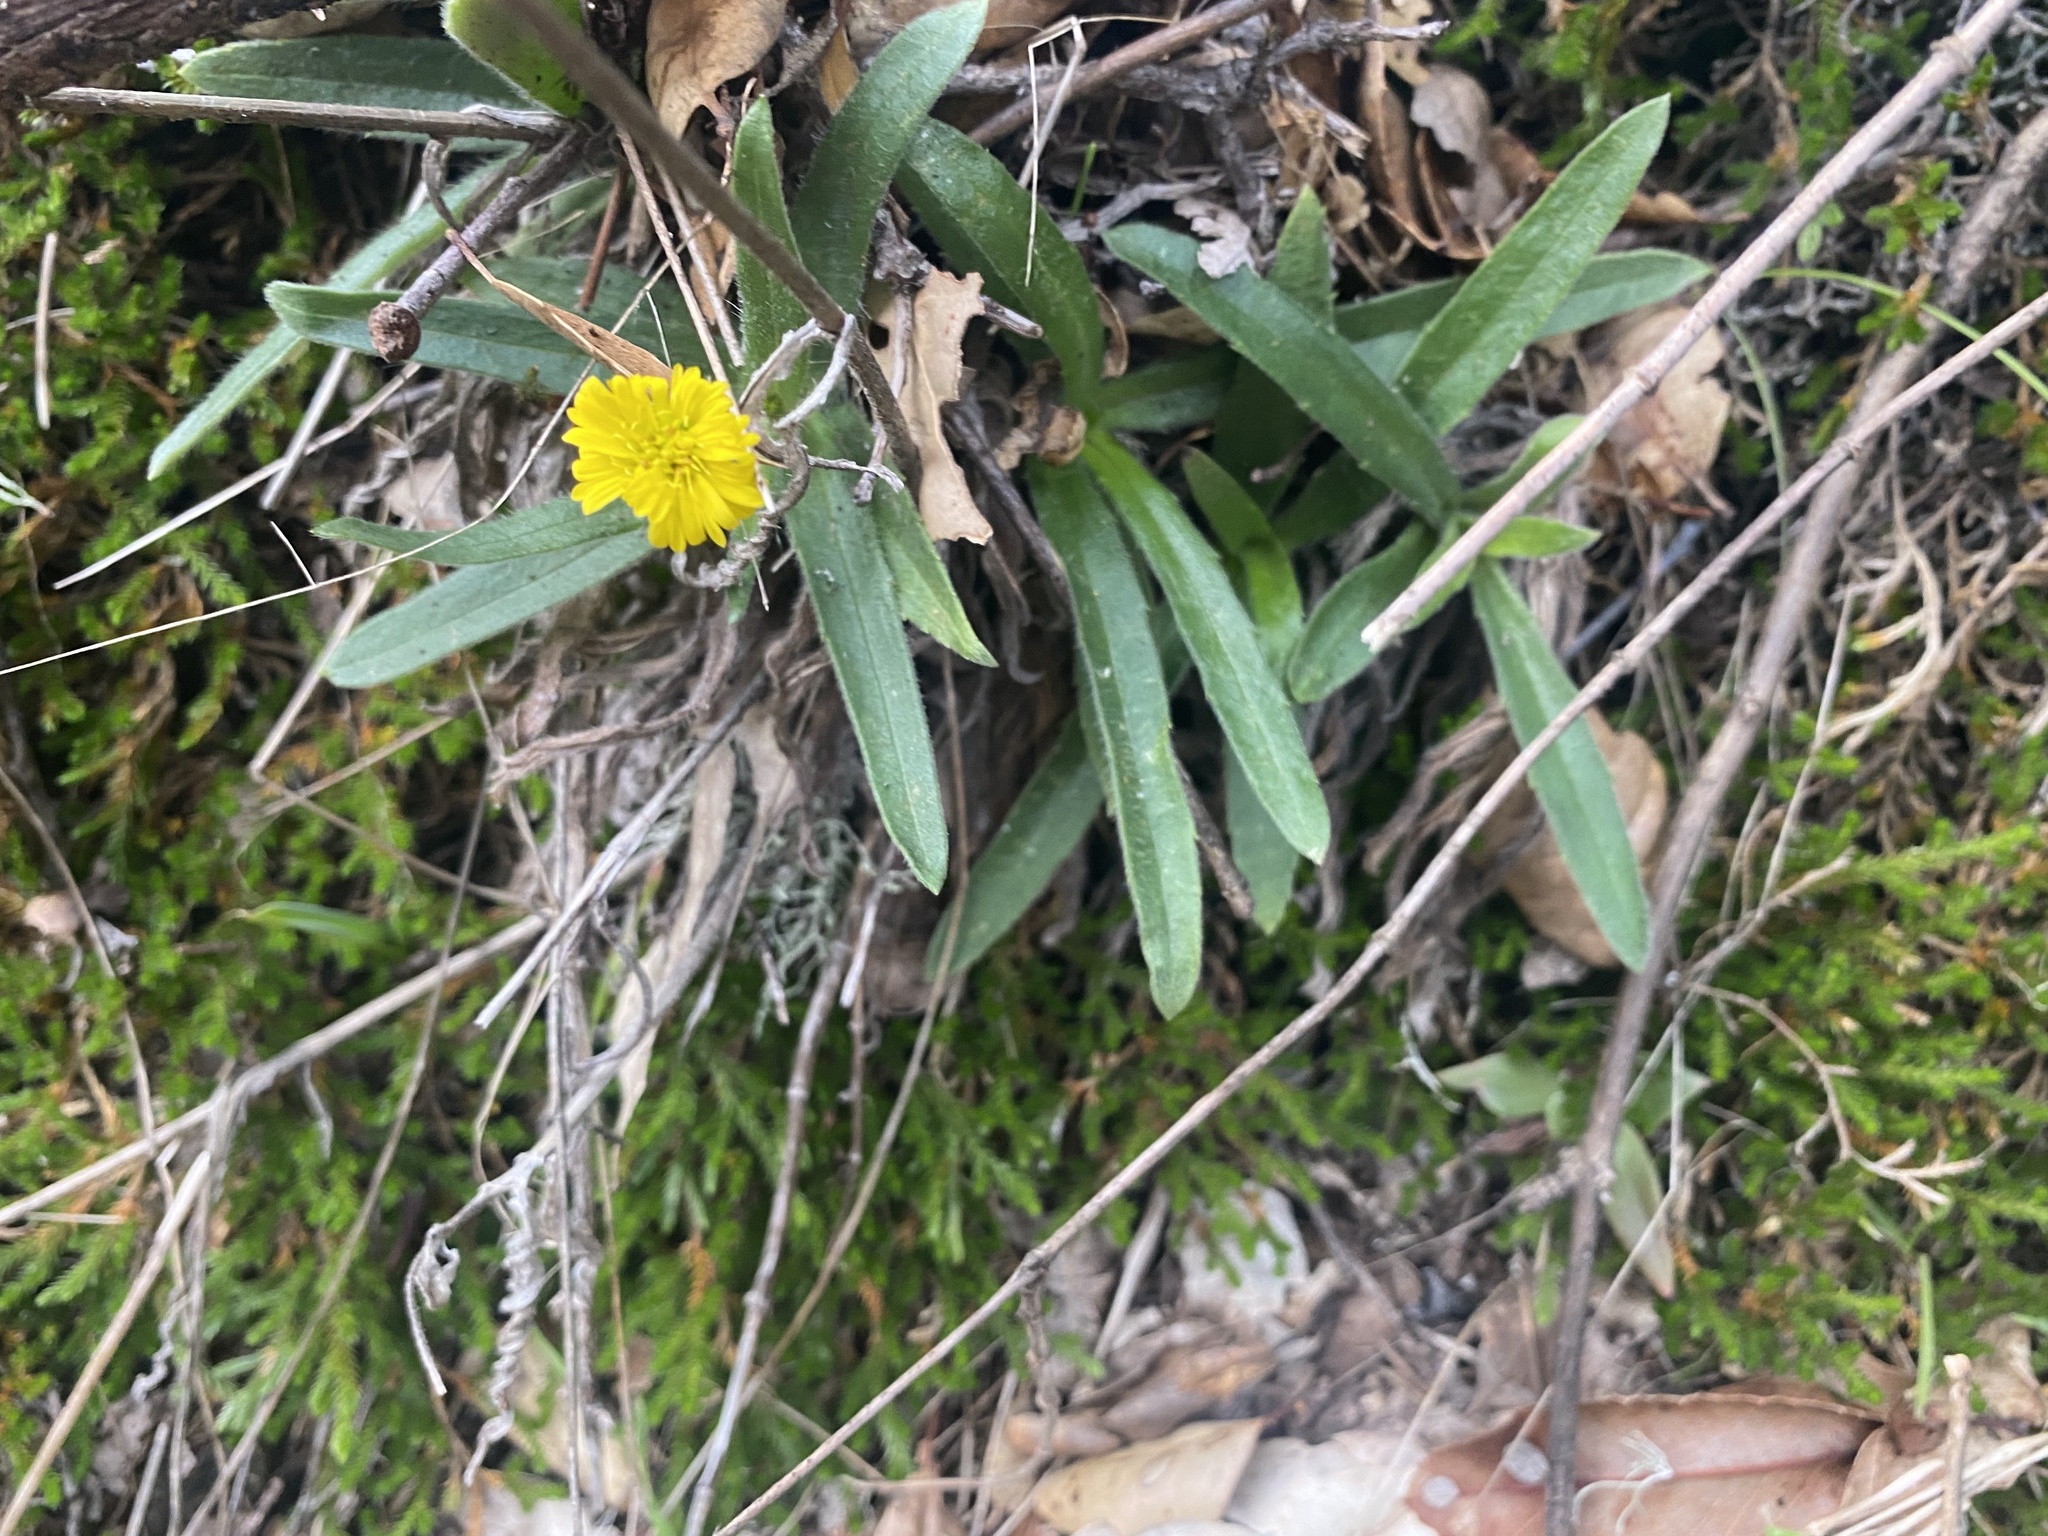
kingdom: Plantae
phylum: Tracheophyta
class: Magnoliopsida
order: Asterales
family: Asteraceae
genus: Anisocarpus
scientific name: Anisocarpus madioides
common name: Woodland madia
